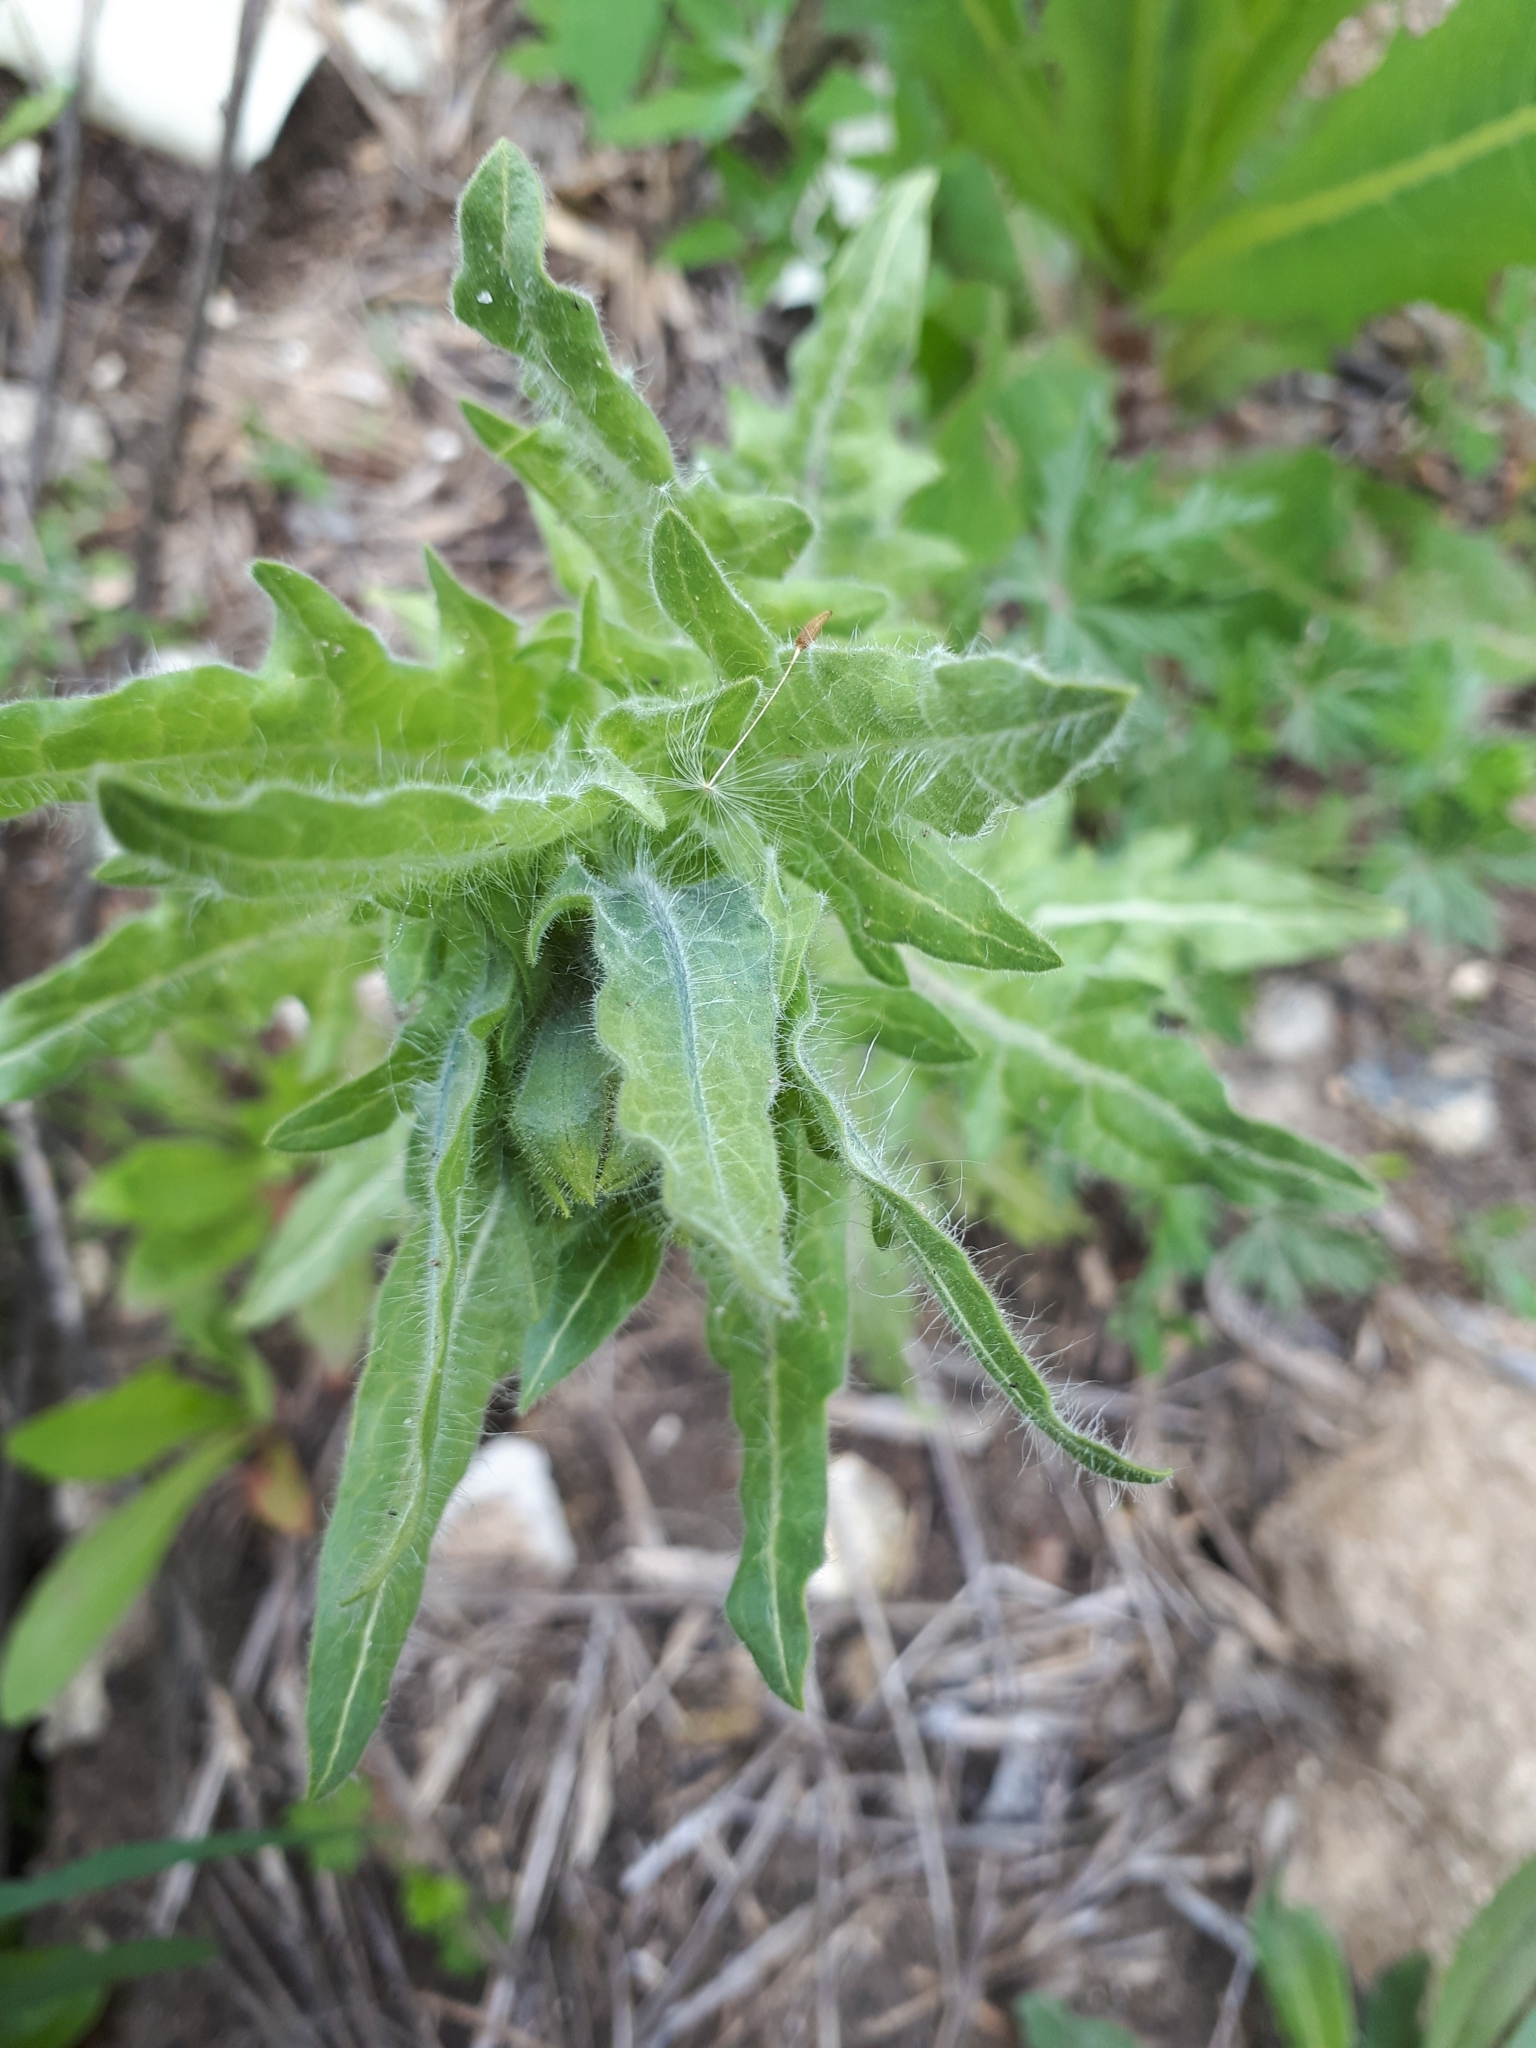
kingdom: Plantae
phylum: Tracheophyta
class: Magnoliopsida
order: Solanales
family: Solanaceae
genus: Hyoscyamus
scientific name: Hyoscyamus niger
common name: Henbane
